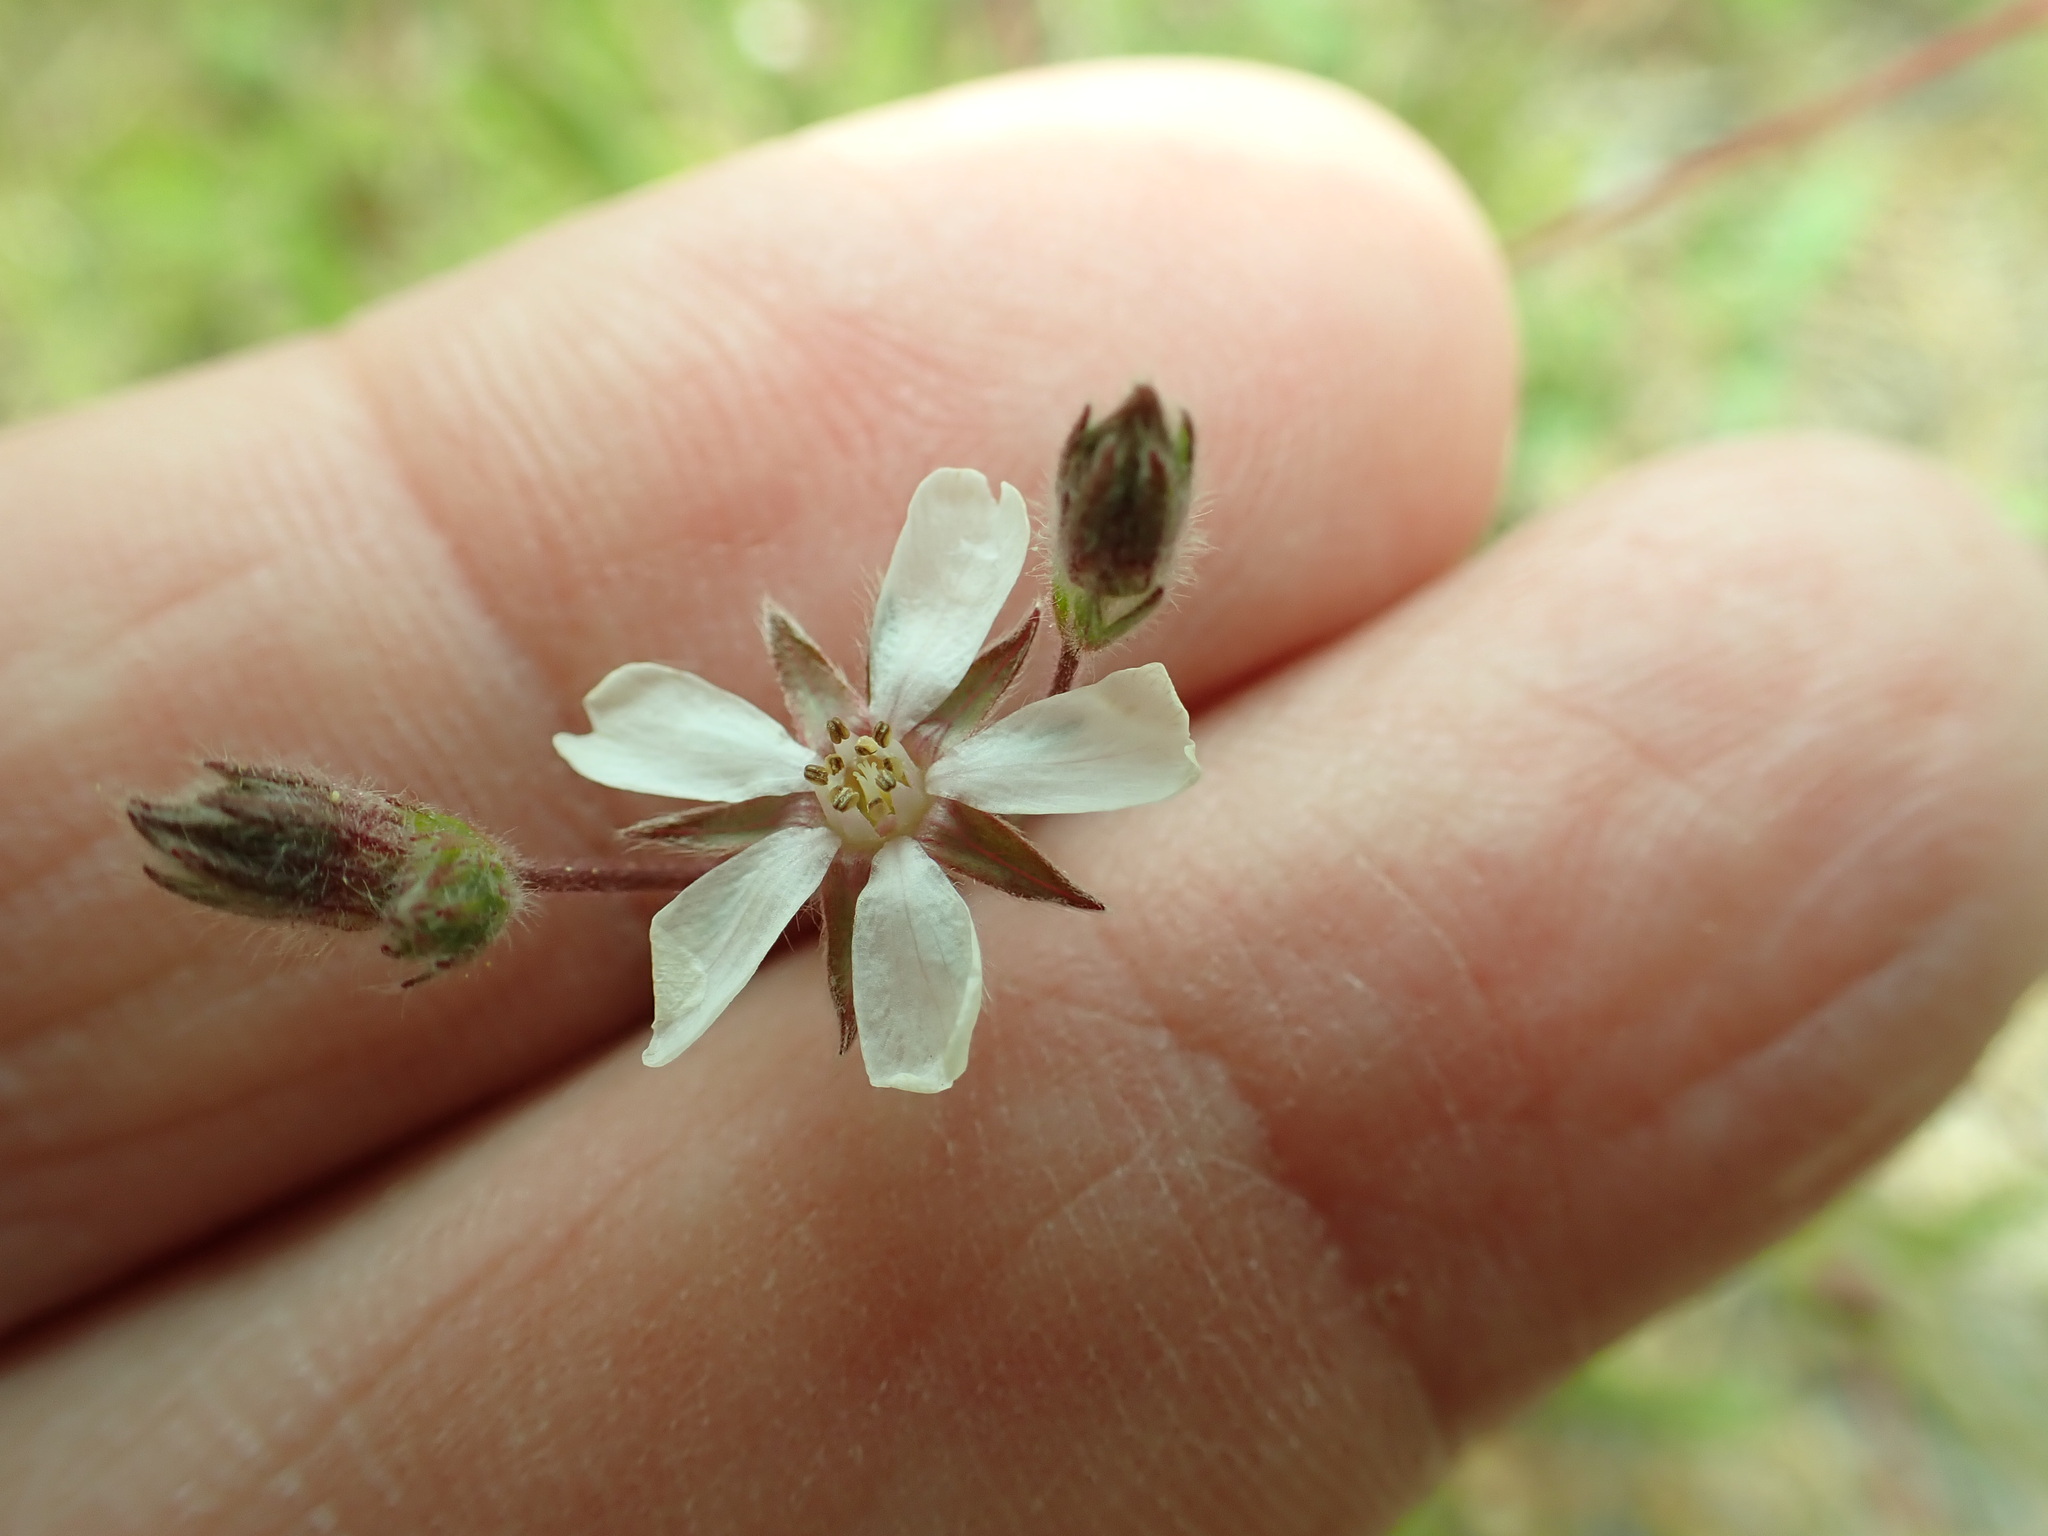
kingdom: Plantae
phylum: Tracheophyta
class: Magnoliopsida
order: Rosales
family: Rosaceae
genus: Potentilla
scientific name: Potentilla howellii
